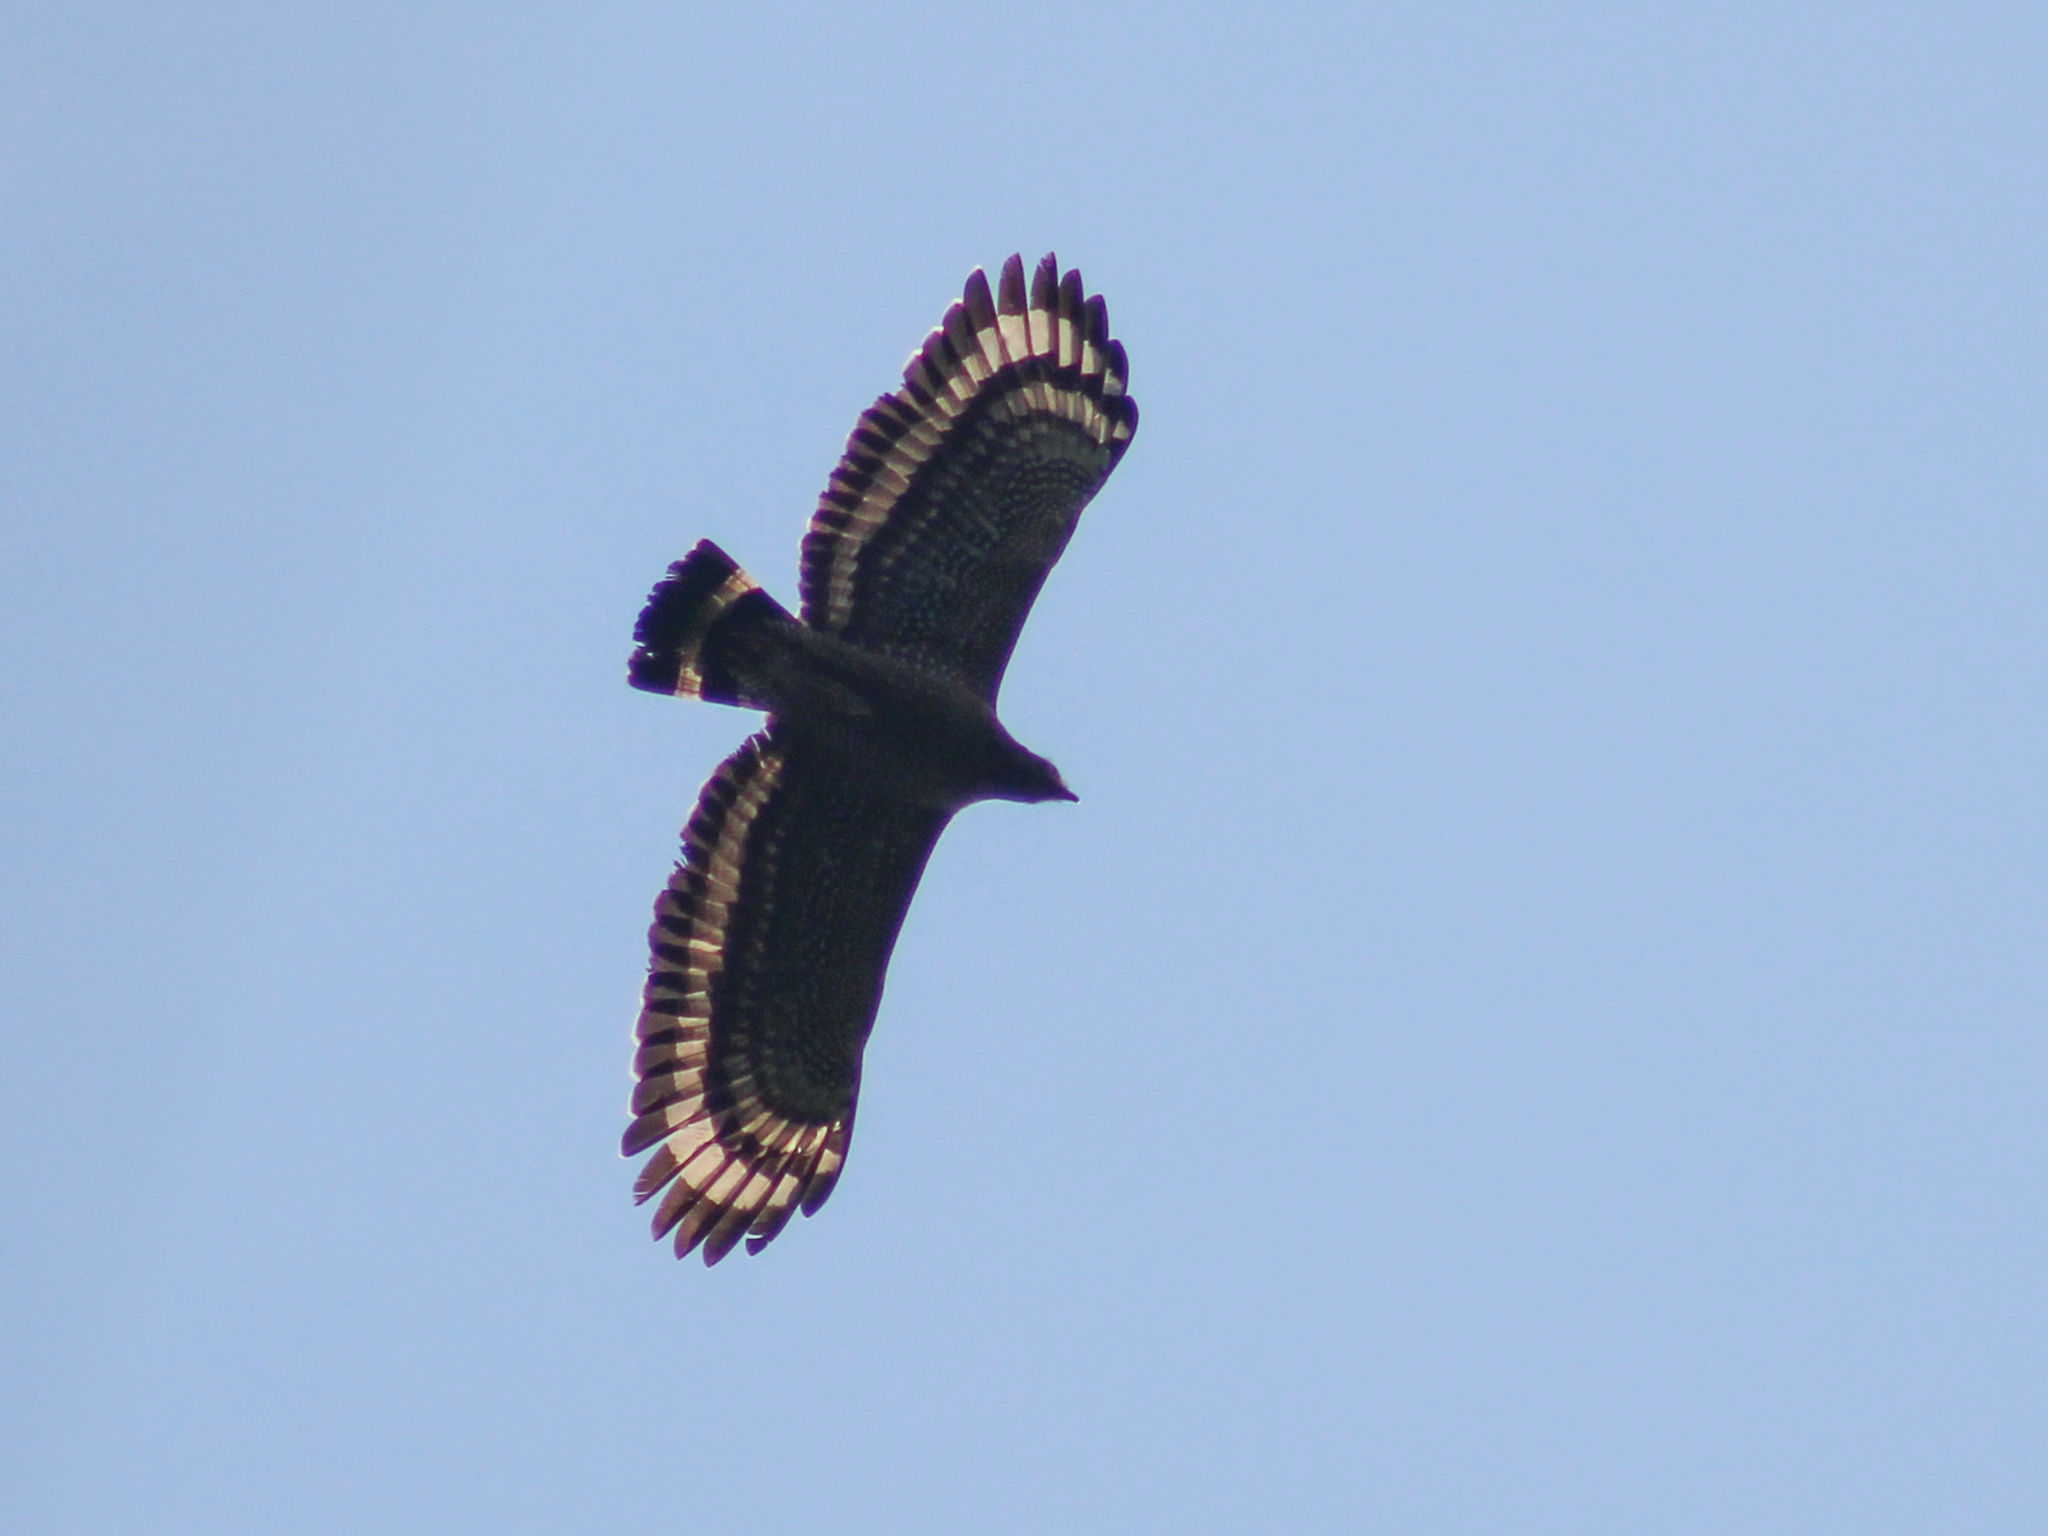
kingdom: Animalia
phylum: Chordata
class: Aves
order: Accipitriformes
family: Accipitridae
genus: Spilornis
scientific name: Spilornis cheela
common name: Crested serpent eagle
